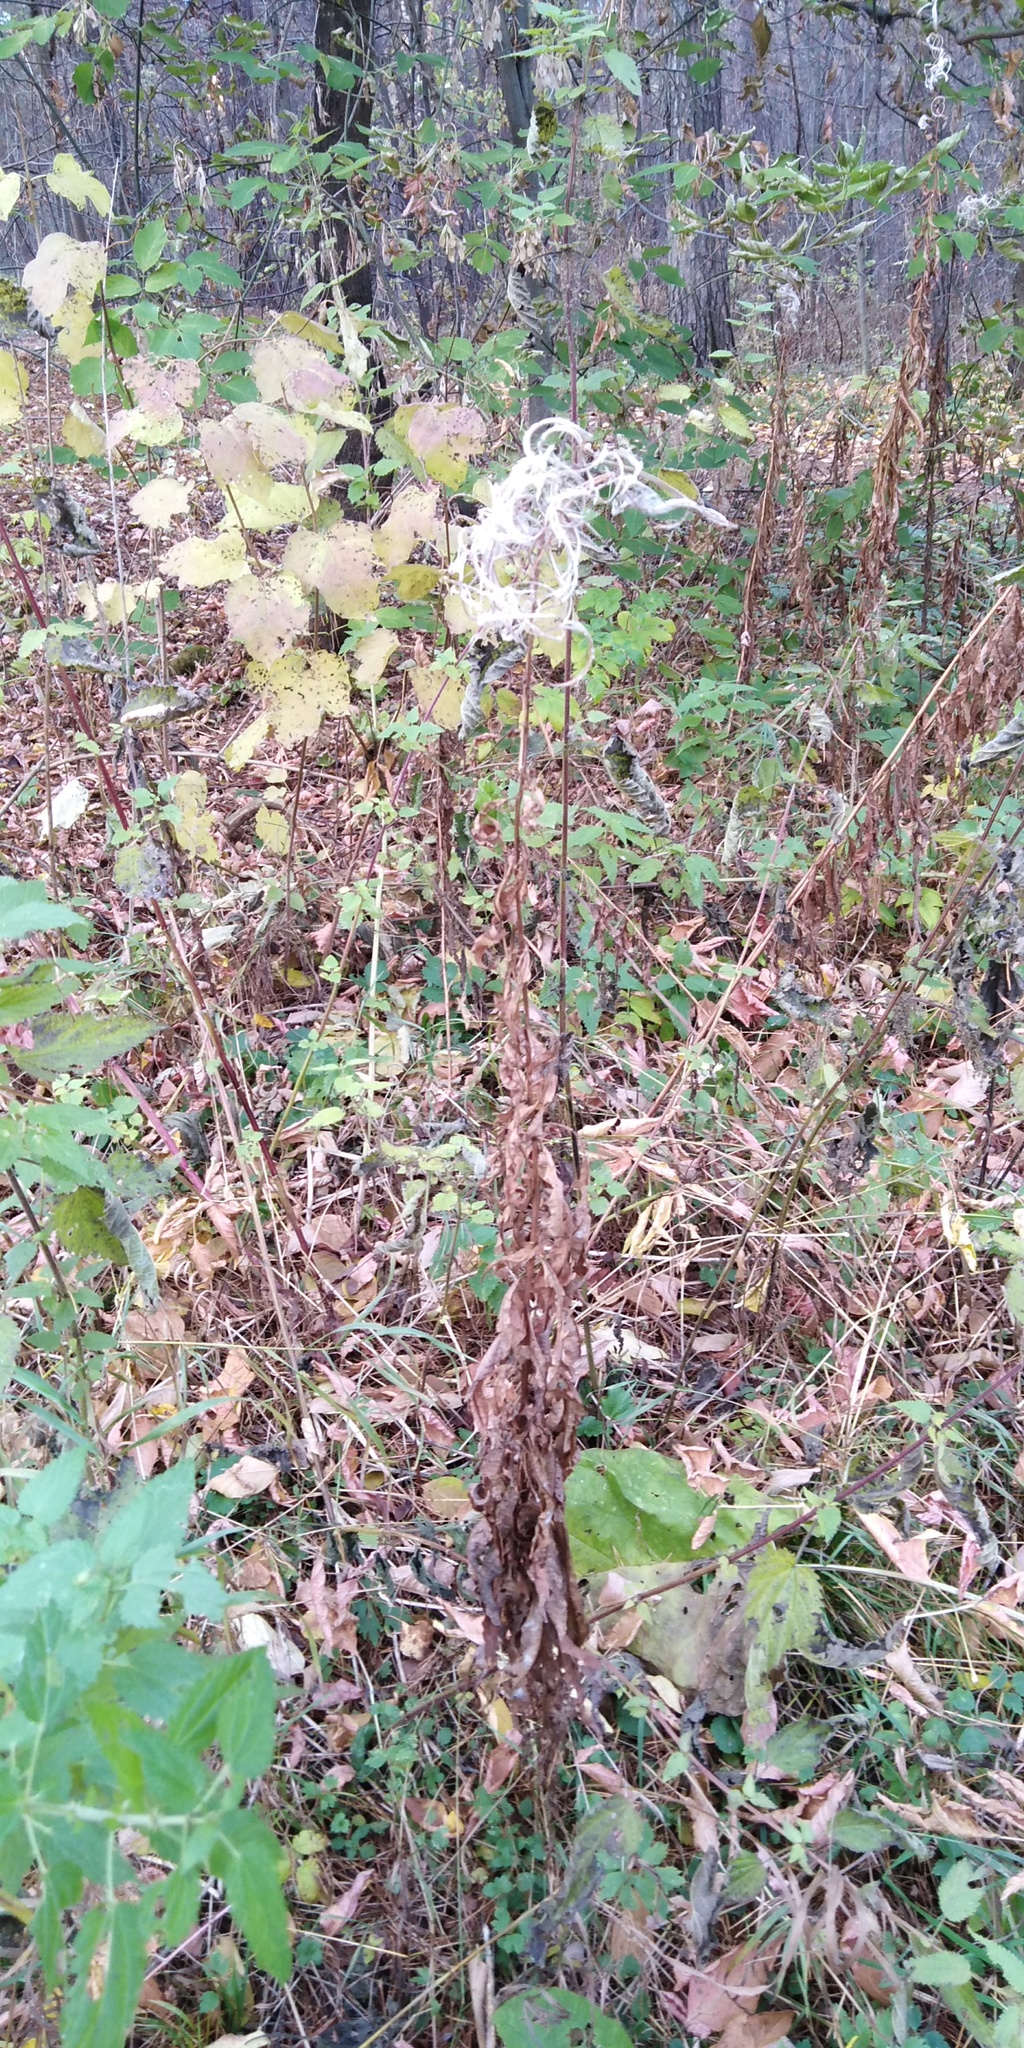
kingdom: Plantae
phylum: Tracheophyta
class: Magnoliopsida
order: Myrtales
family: Onagraceae
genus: Chamaenerion
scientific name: Chamaenerion angustifolium
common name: Fireweed
